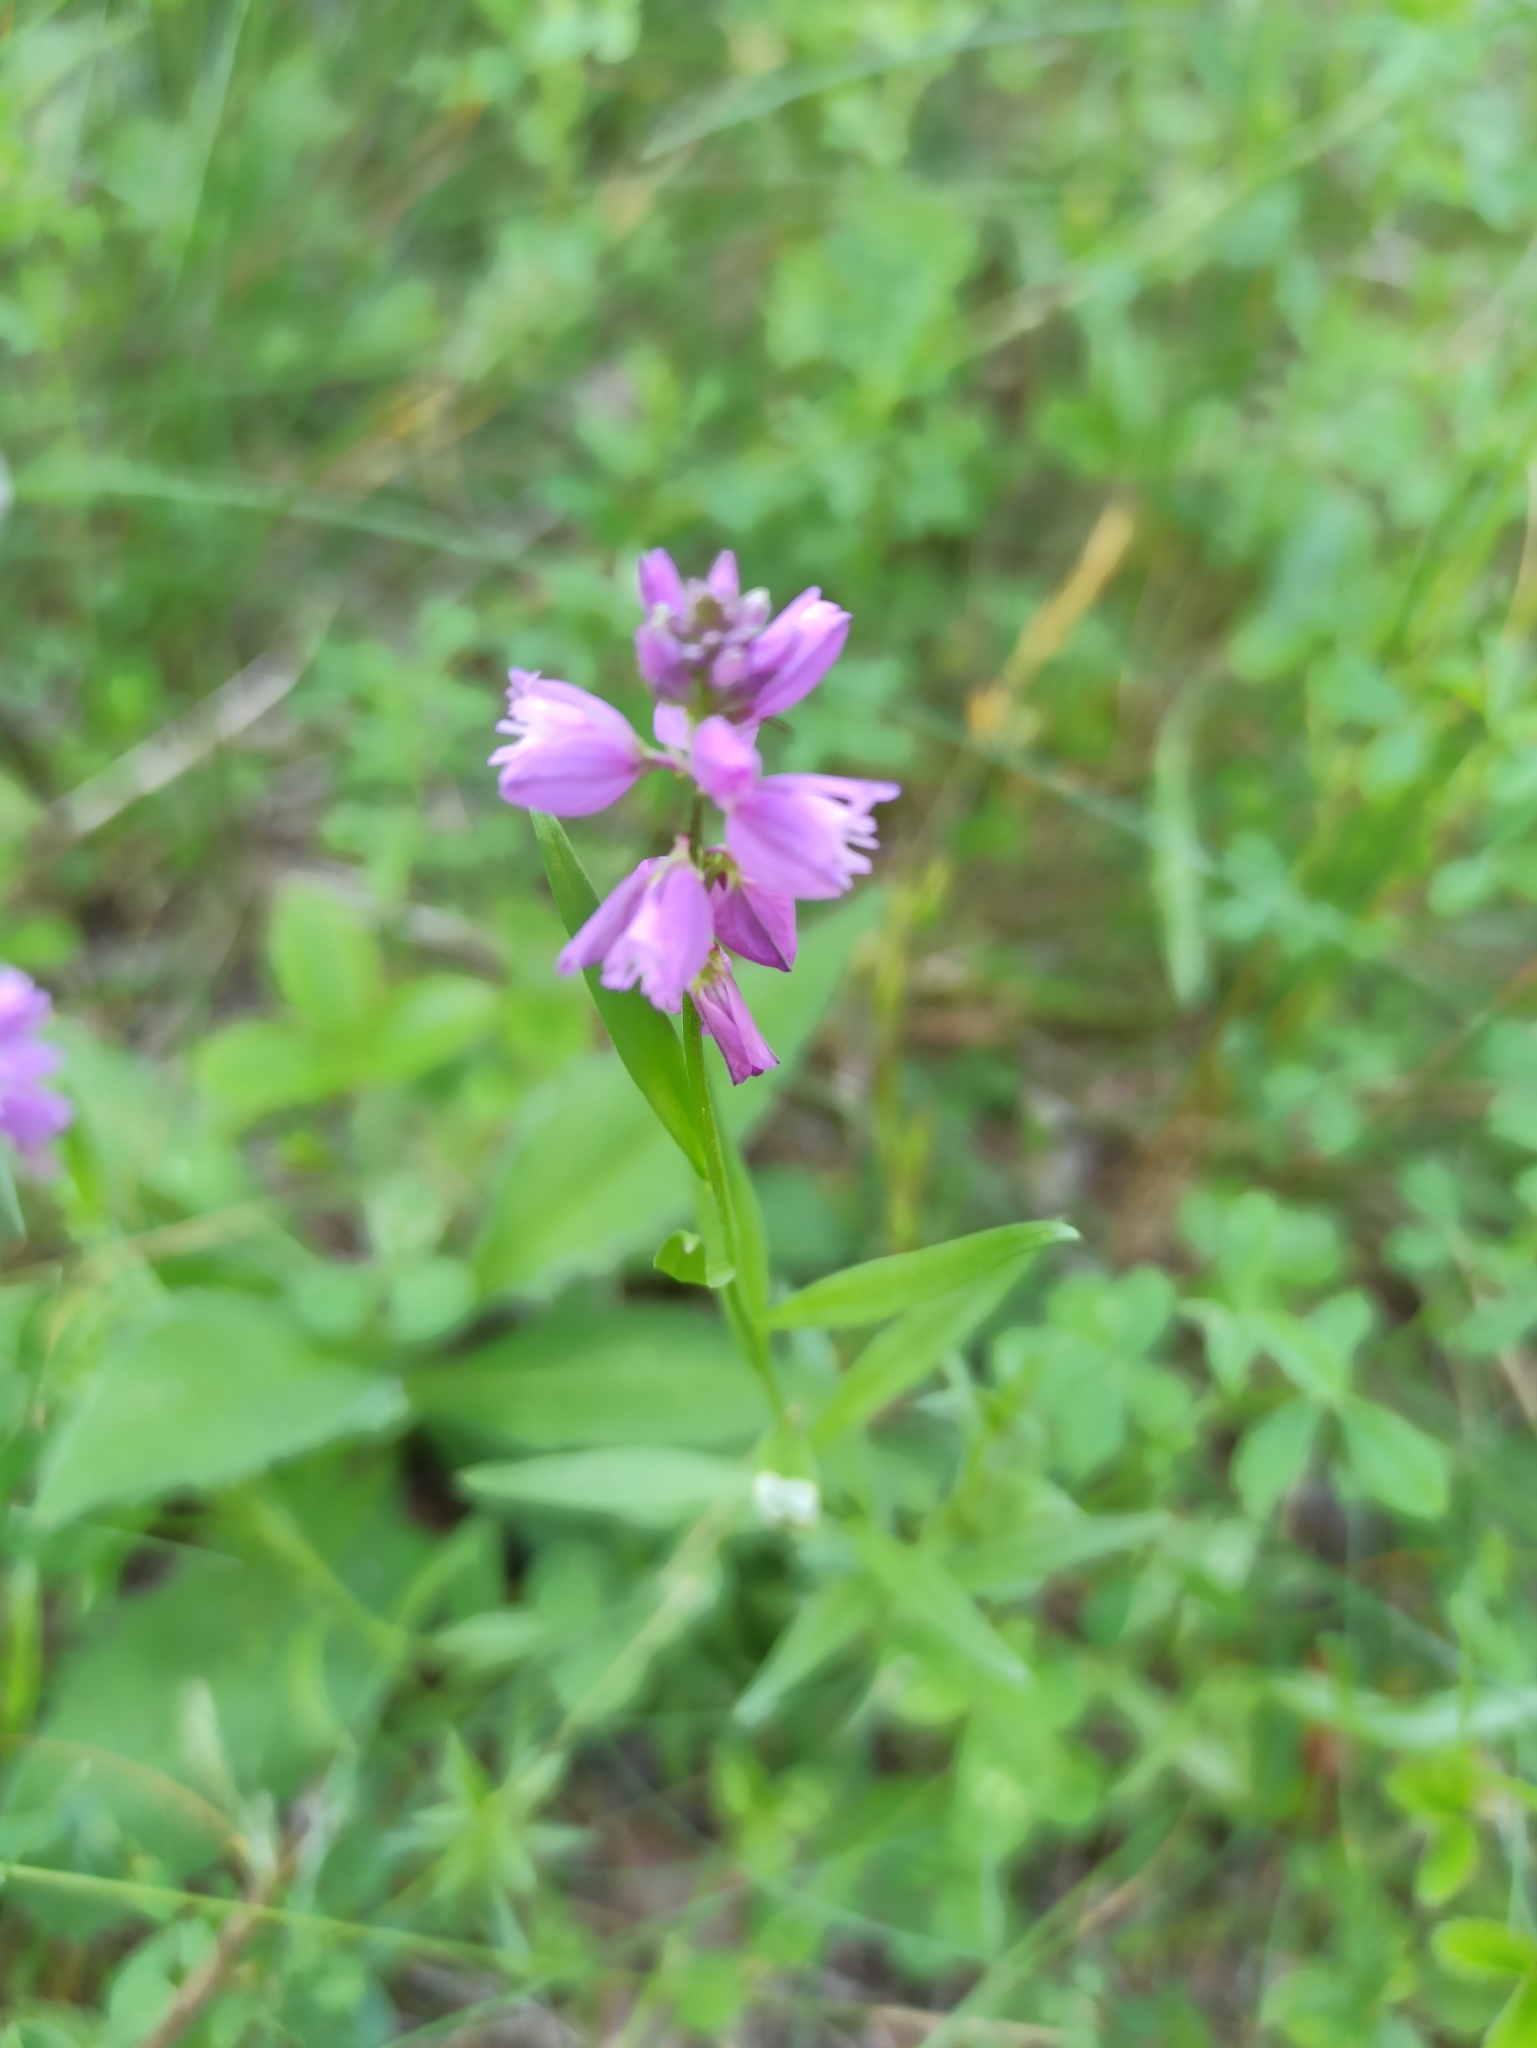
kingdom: Plantae
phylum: Tracheophyta
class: Magnoliopsida
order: Fabales
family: Polygalaceae
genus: Polygala
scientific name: Polygala comosa
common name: Tufted milkwort
